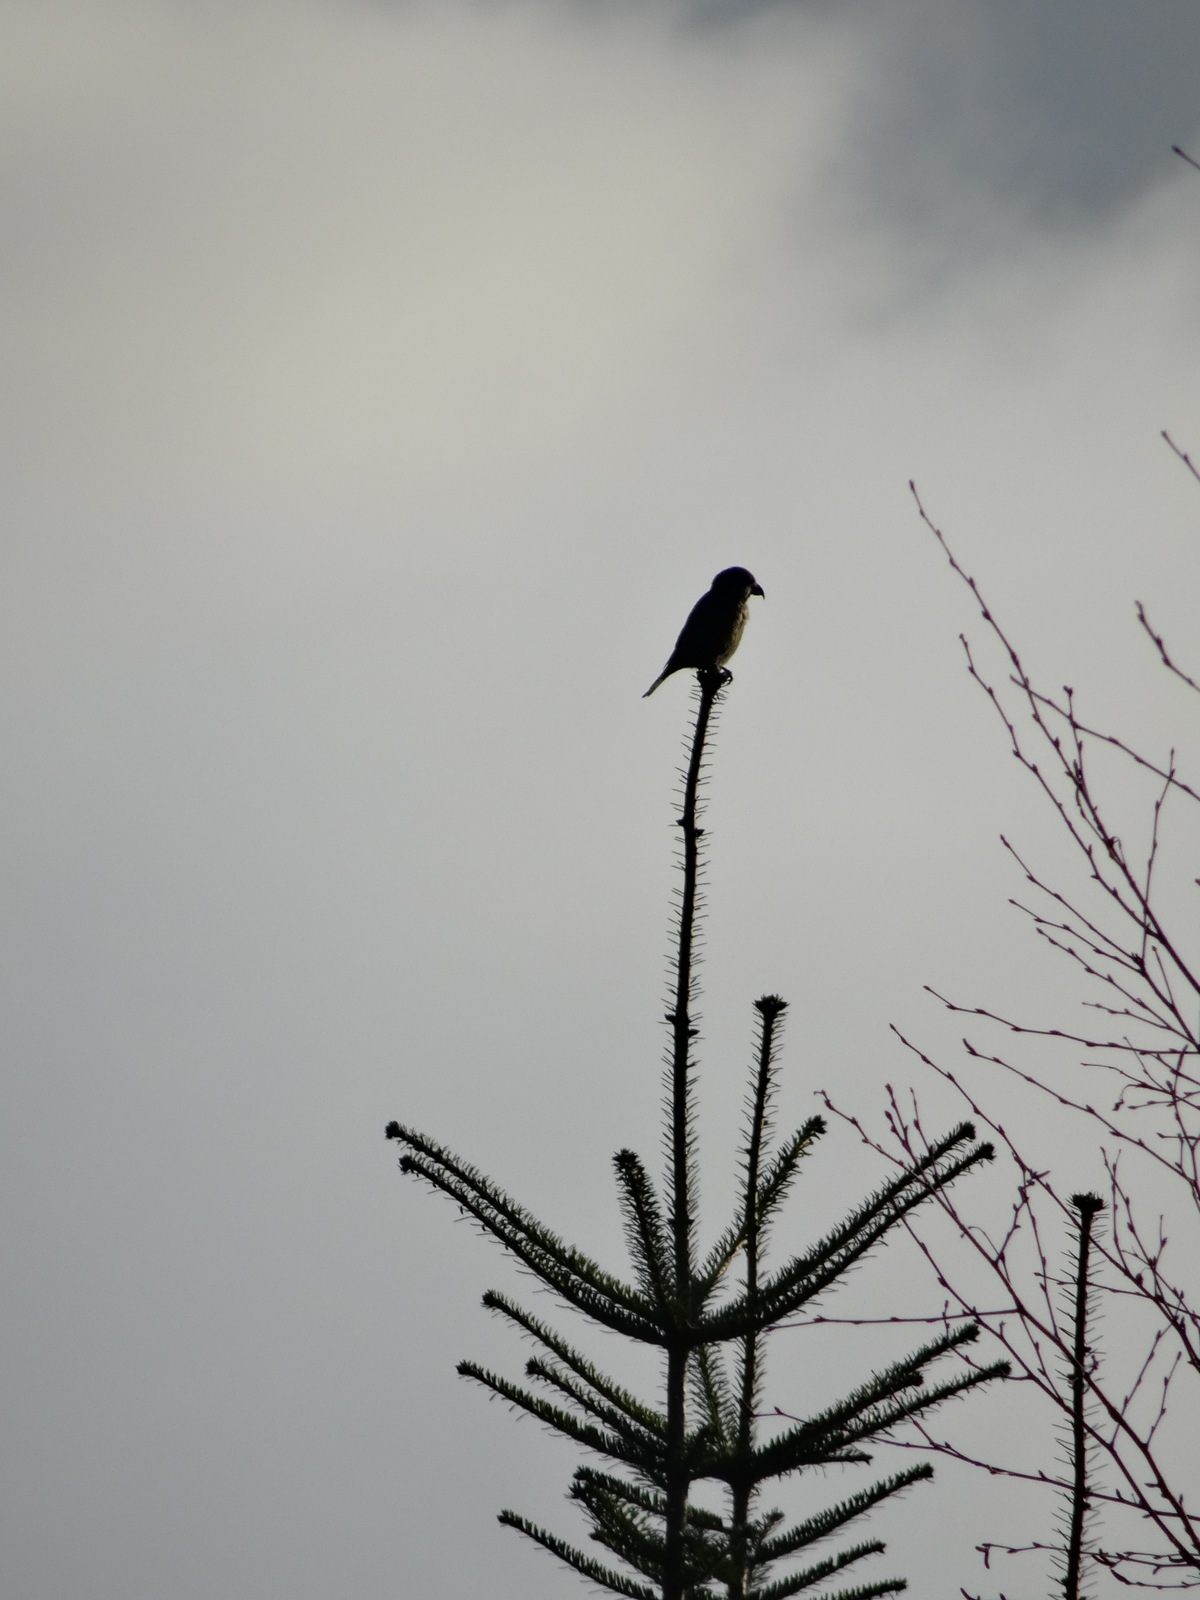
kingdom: Animalia
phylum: Chordata
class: Aves
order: Passeriformes
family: Fringillidae
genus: Loxia
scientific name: Loxia curvirostra
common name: Red crossbill
